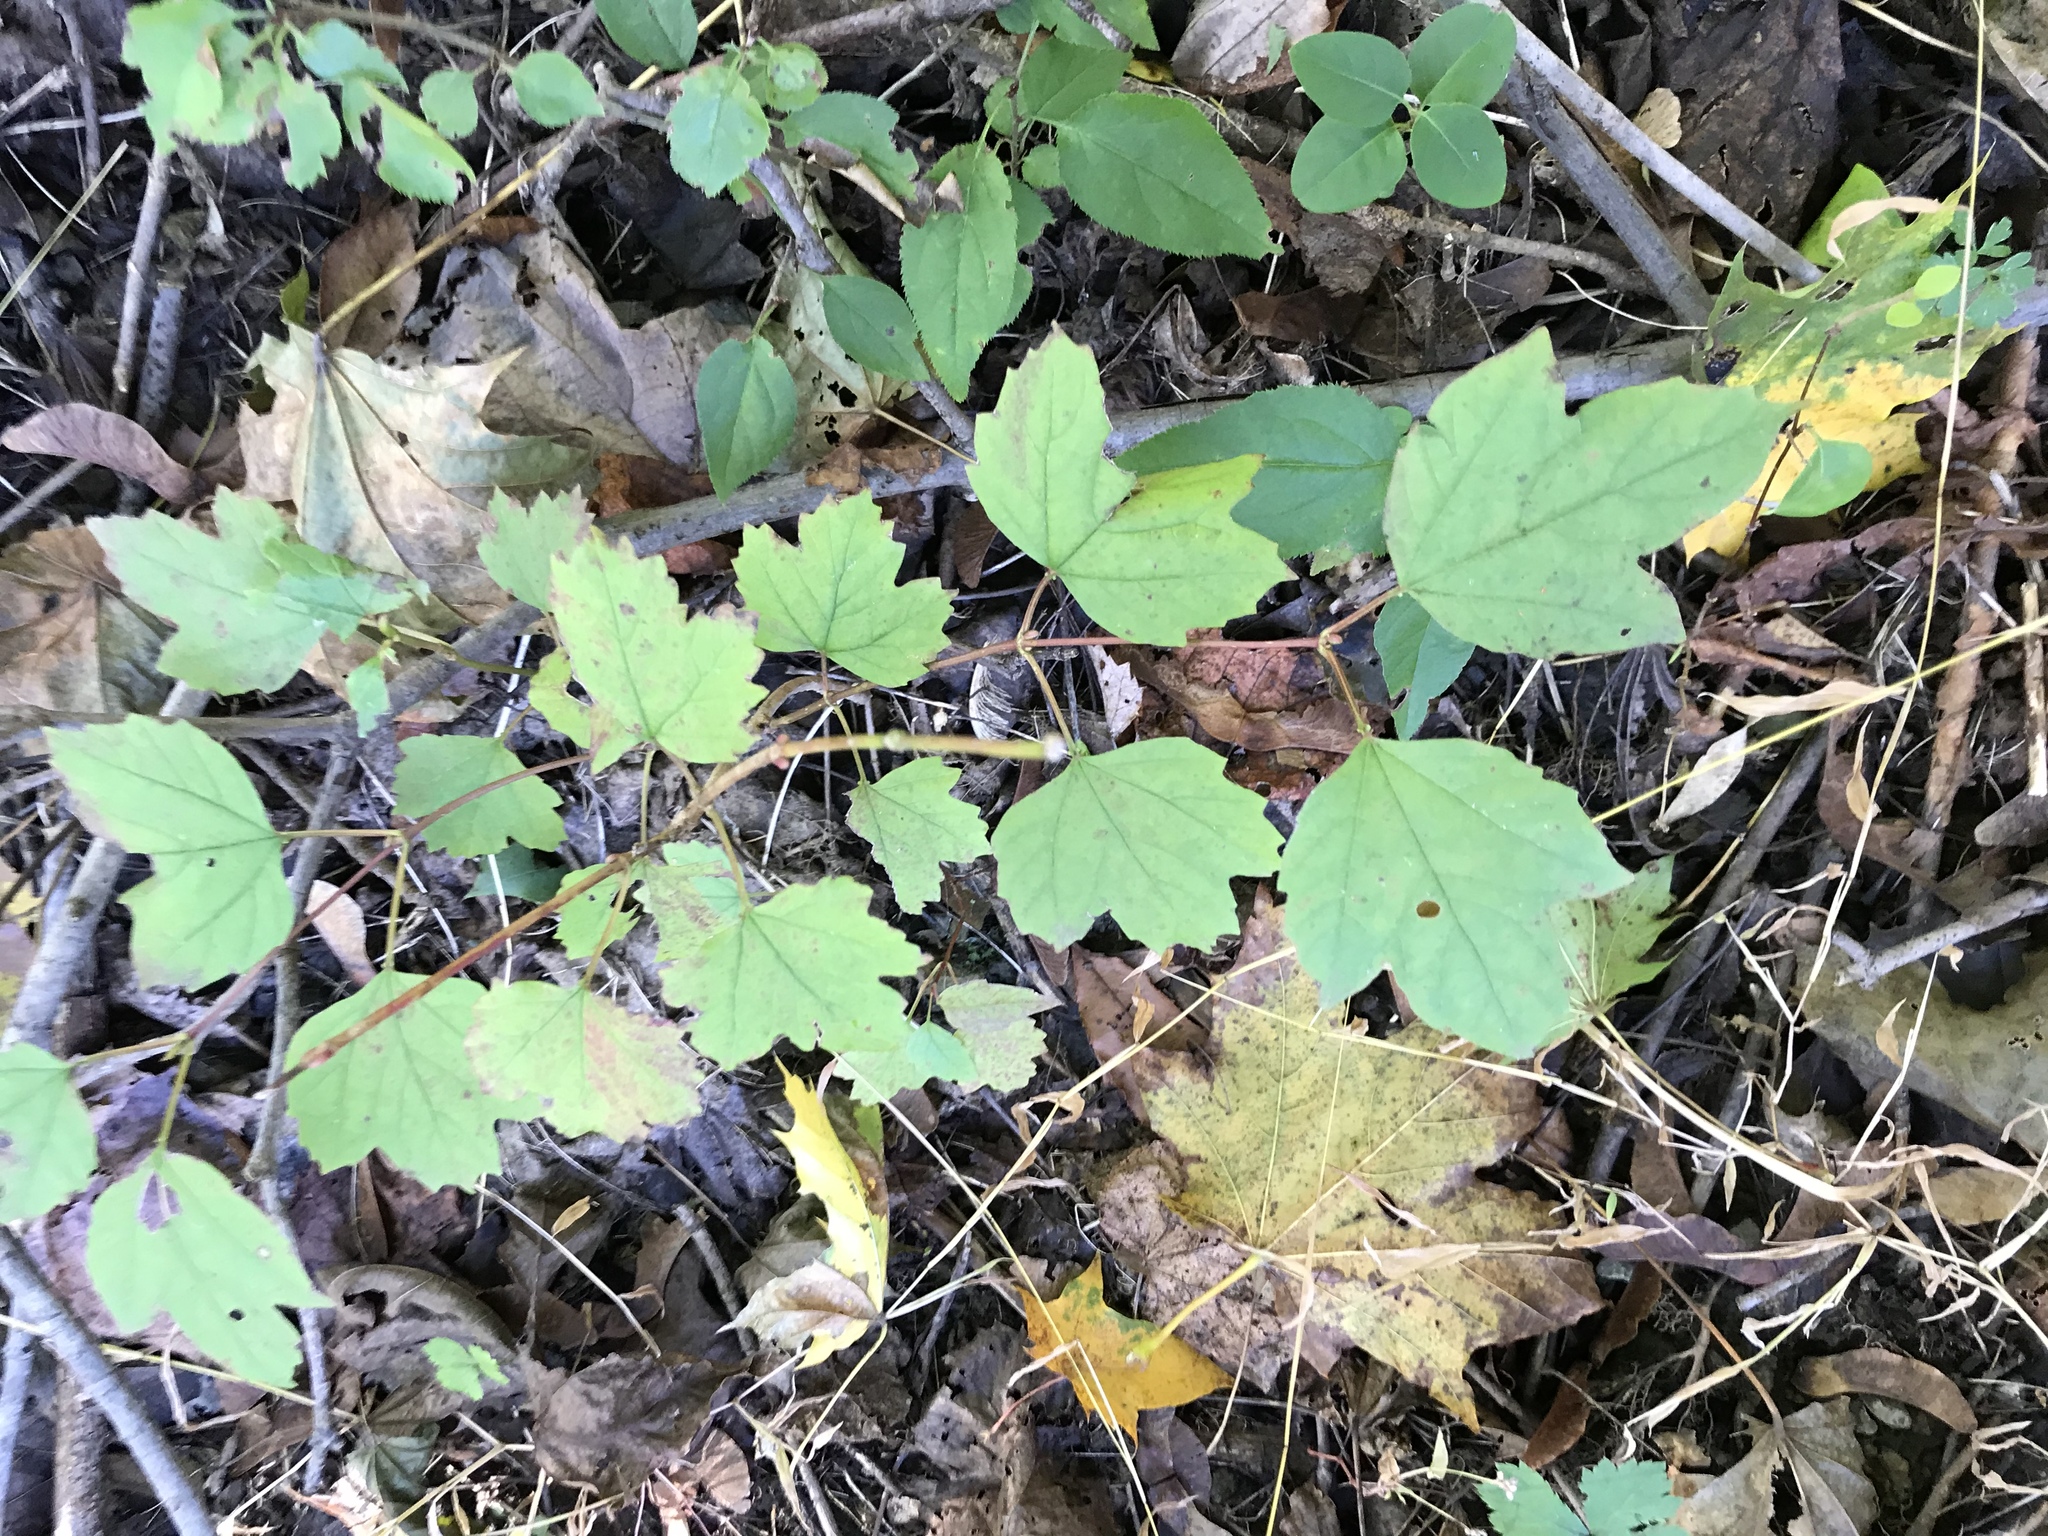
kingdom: Plantae
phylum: Tracheophyta
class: Magnoliopsida
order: Dipsacales
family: Viburnaceae
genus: Viburnum
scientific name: Viburnum opulus
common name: Guelder-rose
